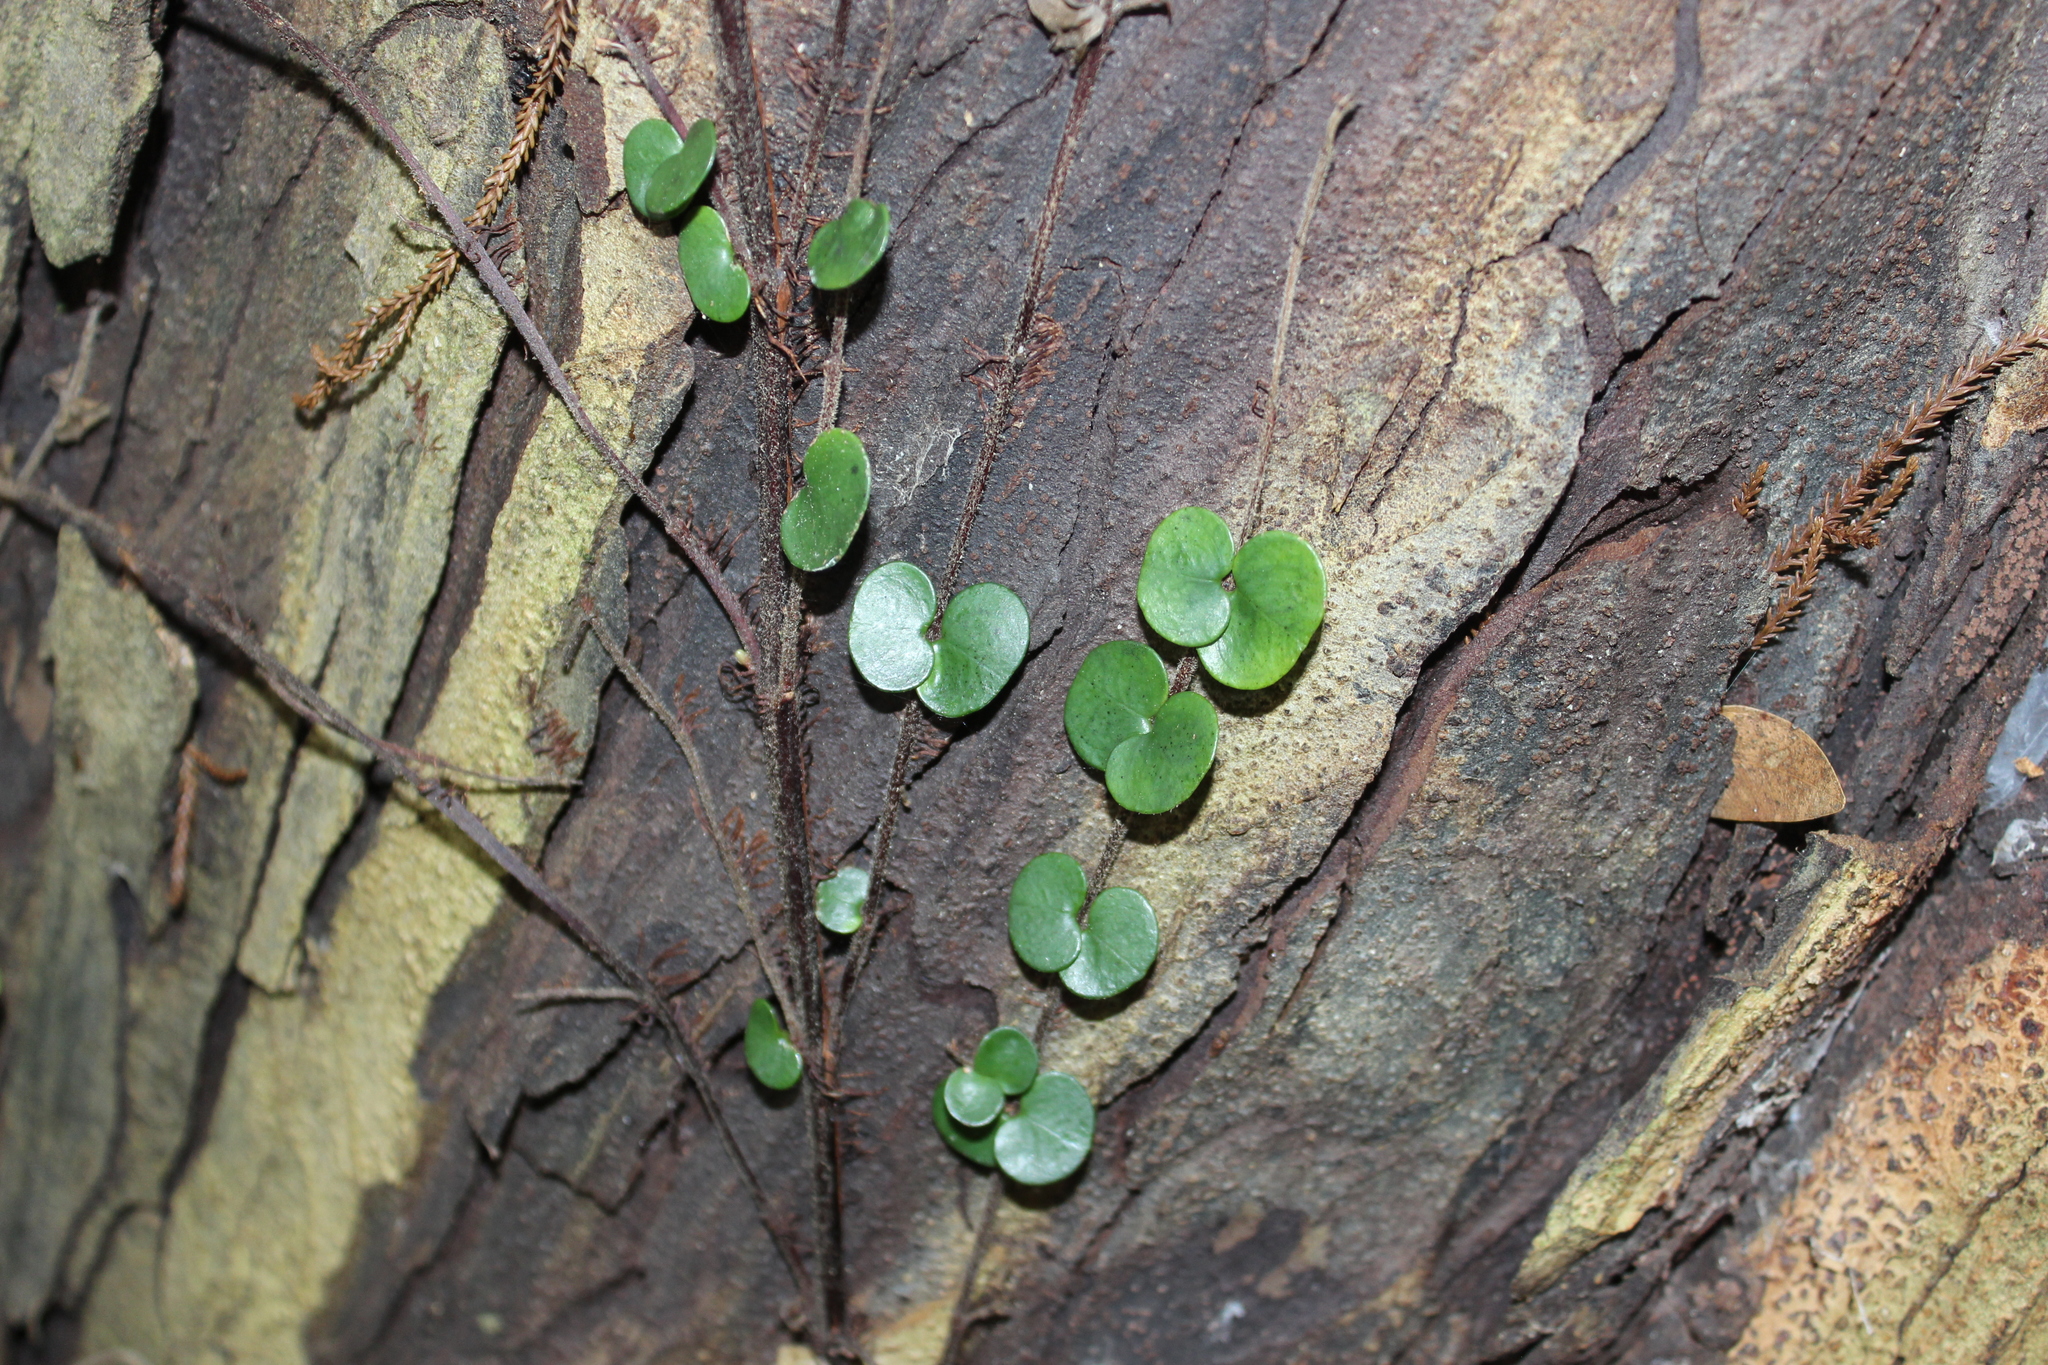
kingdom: Plantae
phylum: Tracheophyta
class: Magnoliopsida
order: Myrtales
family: Myrtaceae
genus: Metrosideros
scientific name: Metrosideros perforata
